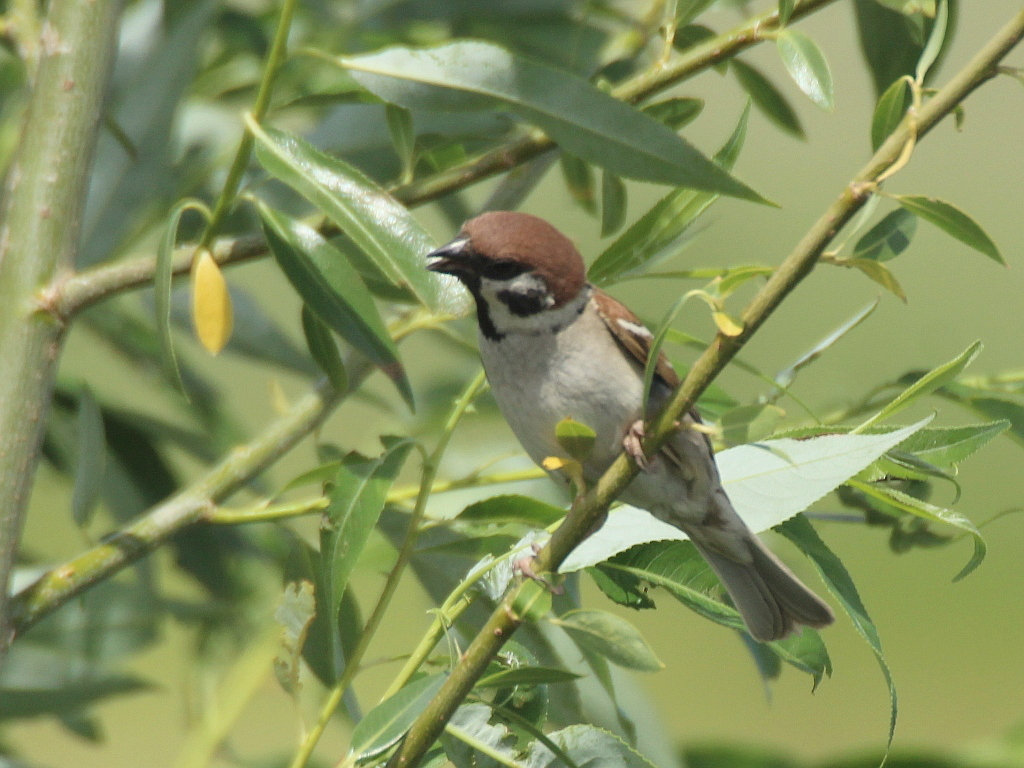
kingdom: Animalia
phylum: Chordata
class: Aves
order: Passeriformes
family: Passeridae
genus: Passer
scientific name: Passer montanus
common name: Eurasian tree sparrow
